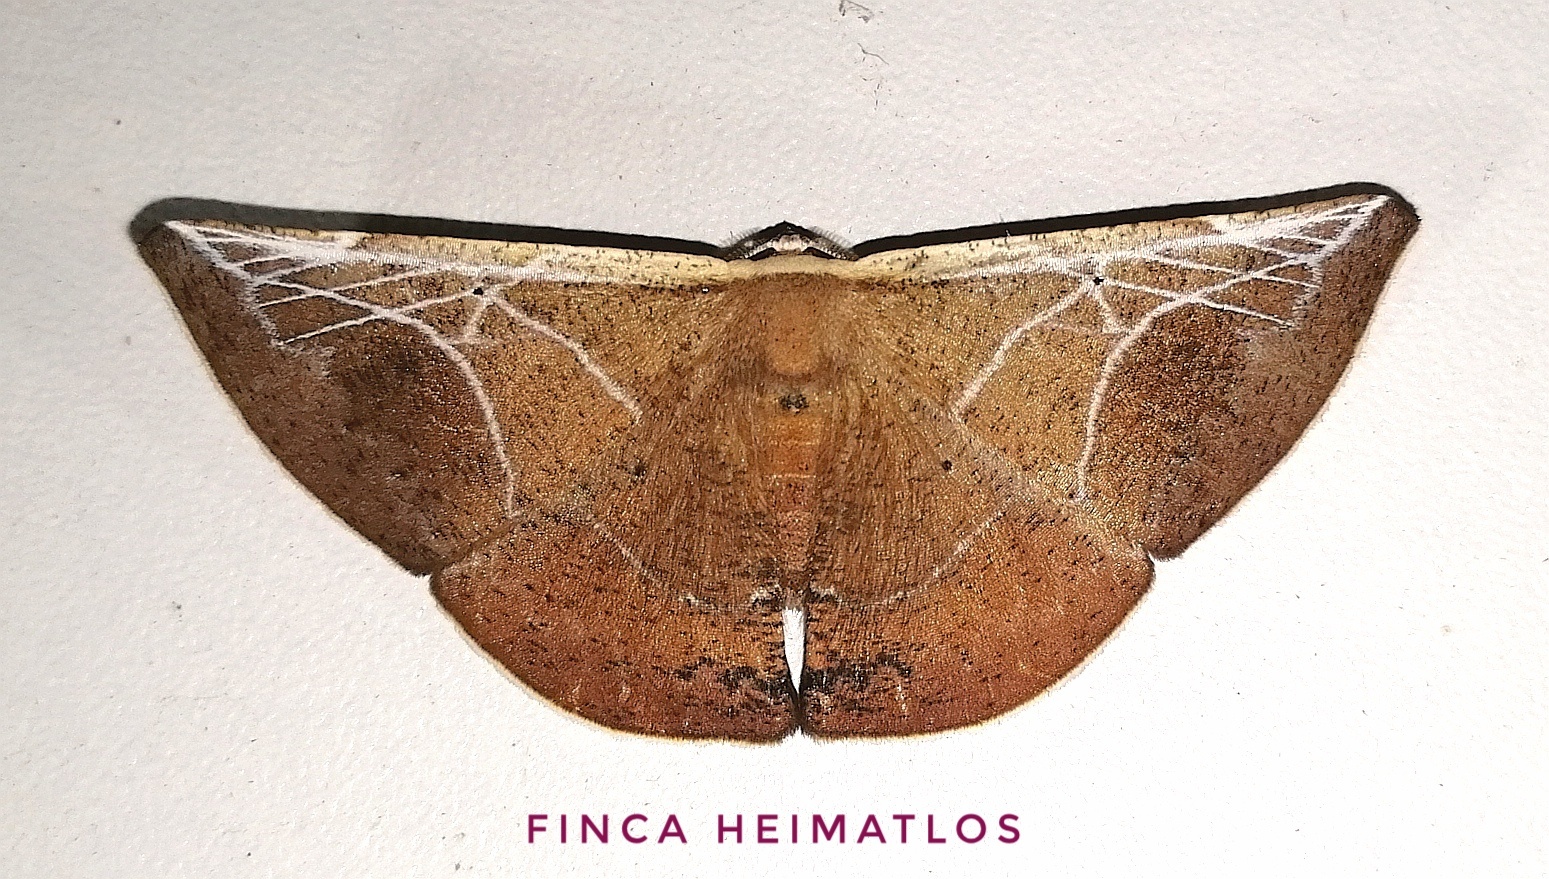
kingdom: Animalia
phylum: Arthropoda
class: Insecta
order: Lepidoptera
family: Geometridae
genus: Polla
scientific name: Polla celeraria
